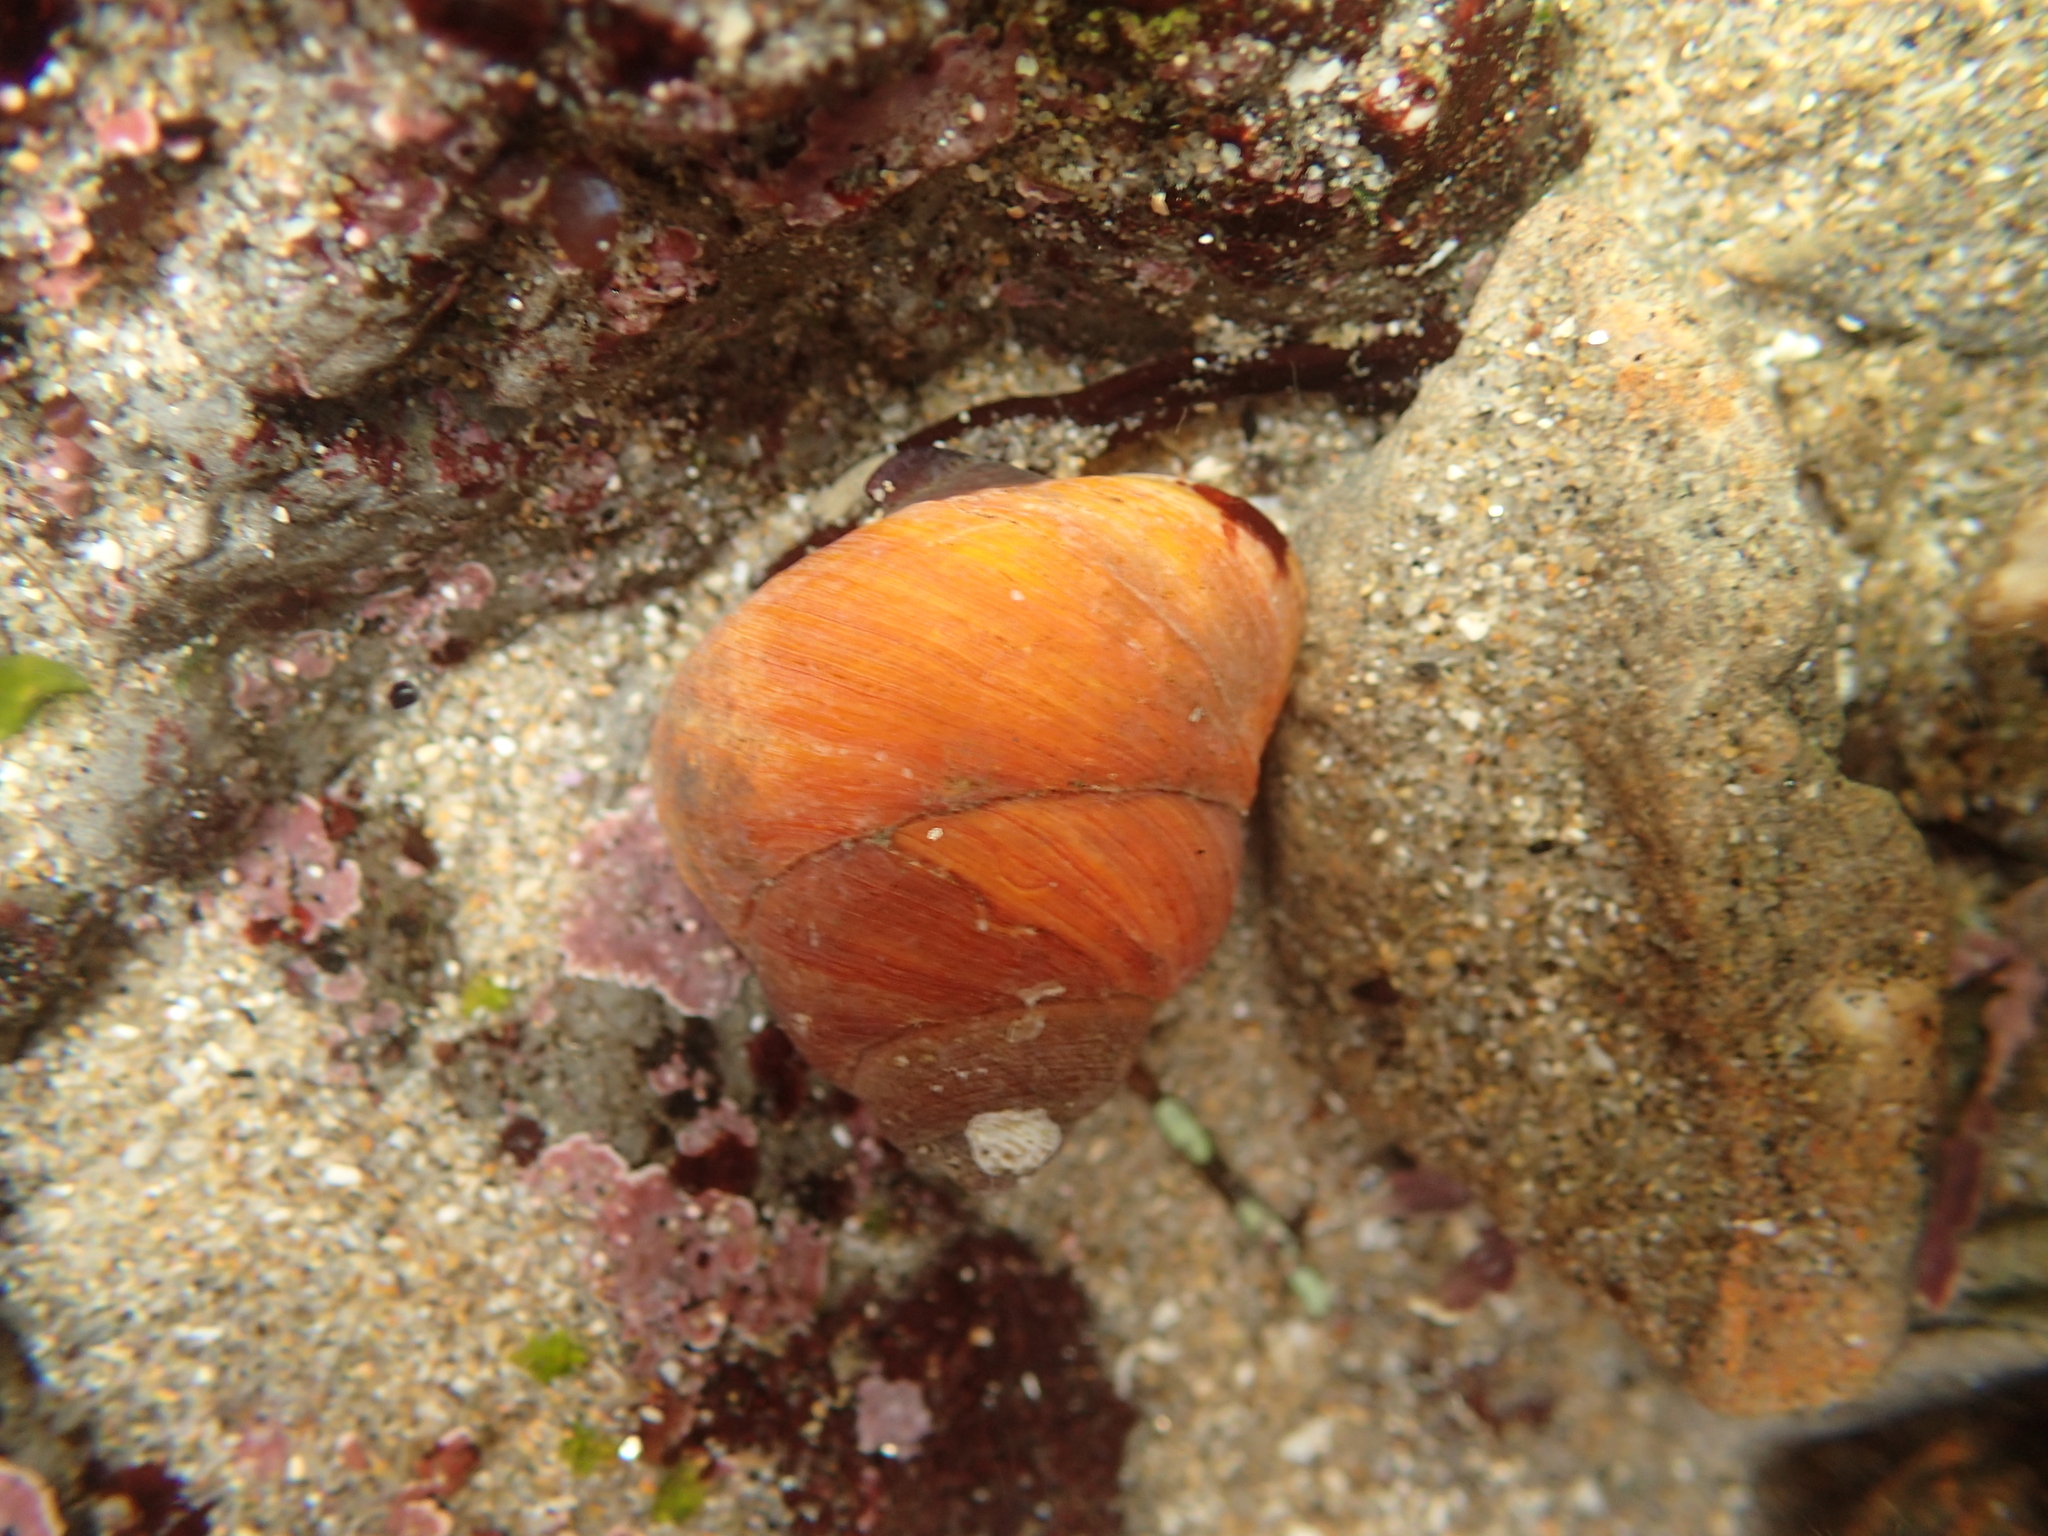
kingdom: Animalia
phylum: Mollusca
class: Gastropoda
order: Trochida
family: Tegulidae
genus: Tegula
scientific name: Tegula brunnea
